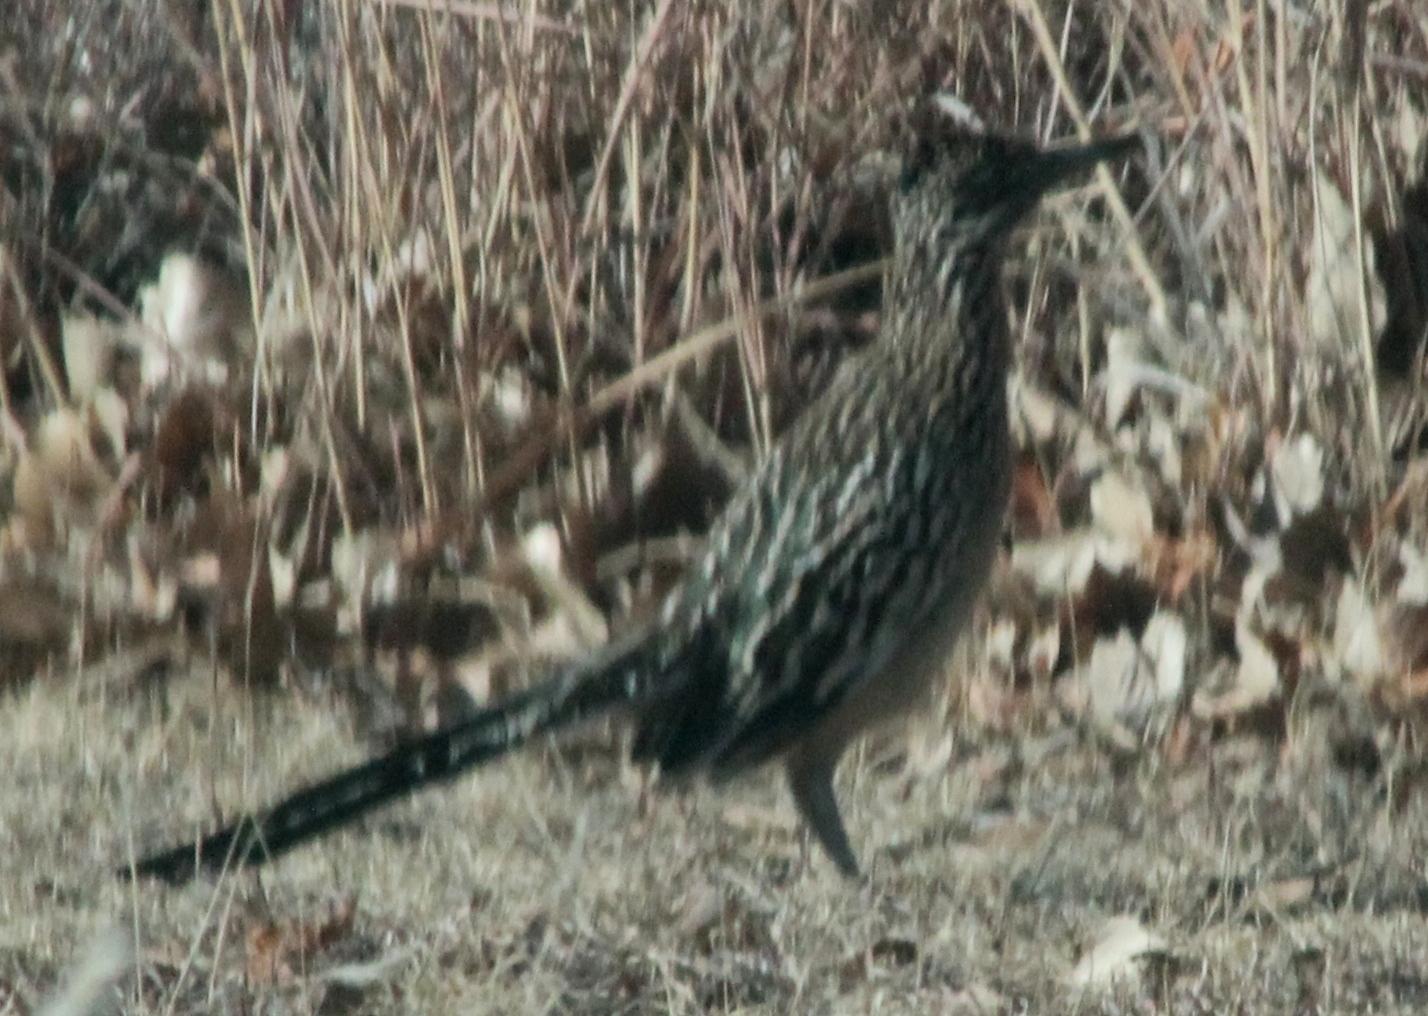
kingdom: Animalia
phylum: Chordata
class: Aves
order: Cuculiformes
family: Cuculidae
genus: Geococcyx
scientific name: Geococcyx californianus
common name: Greater roadrunner
